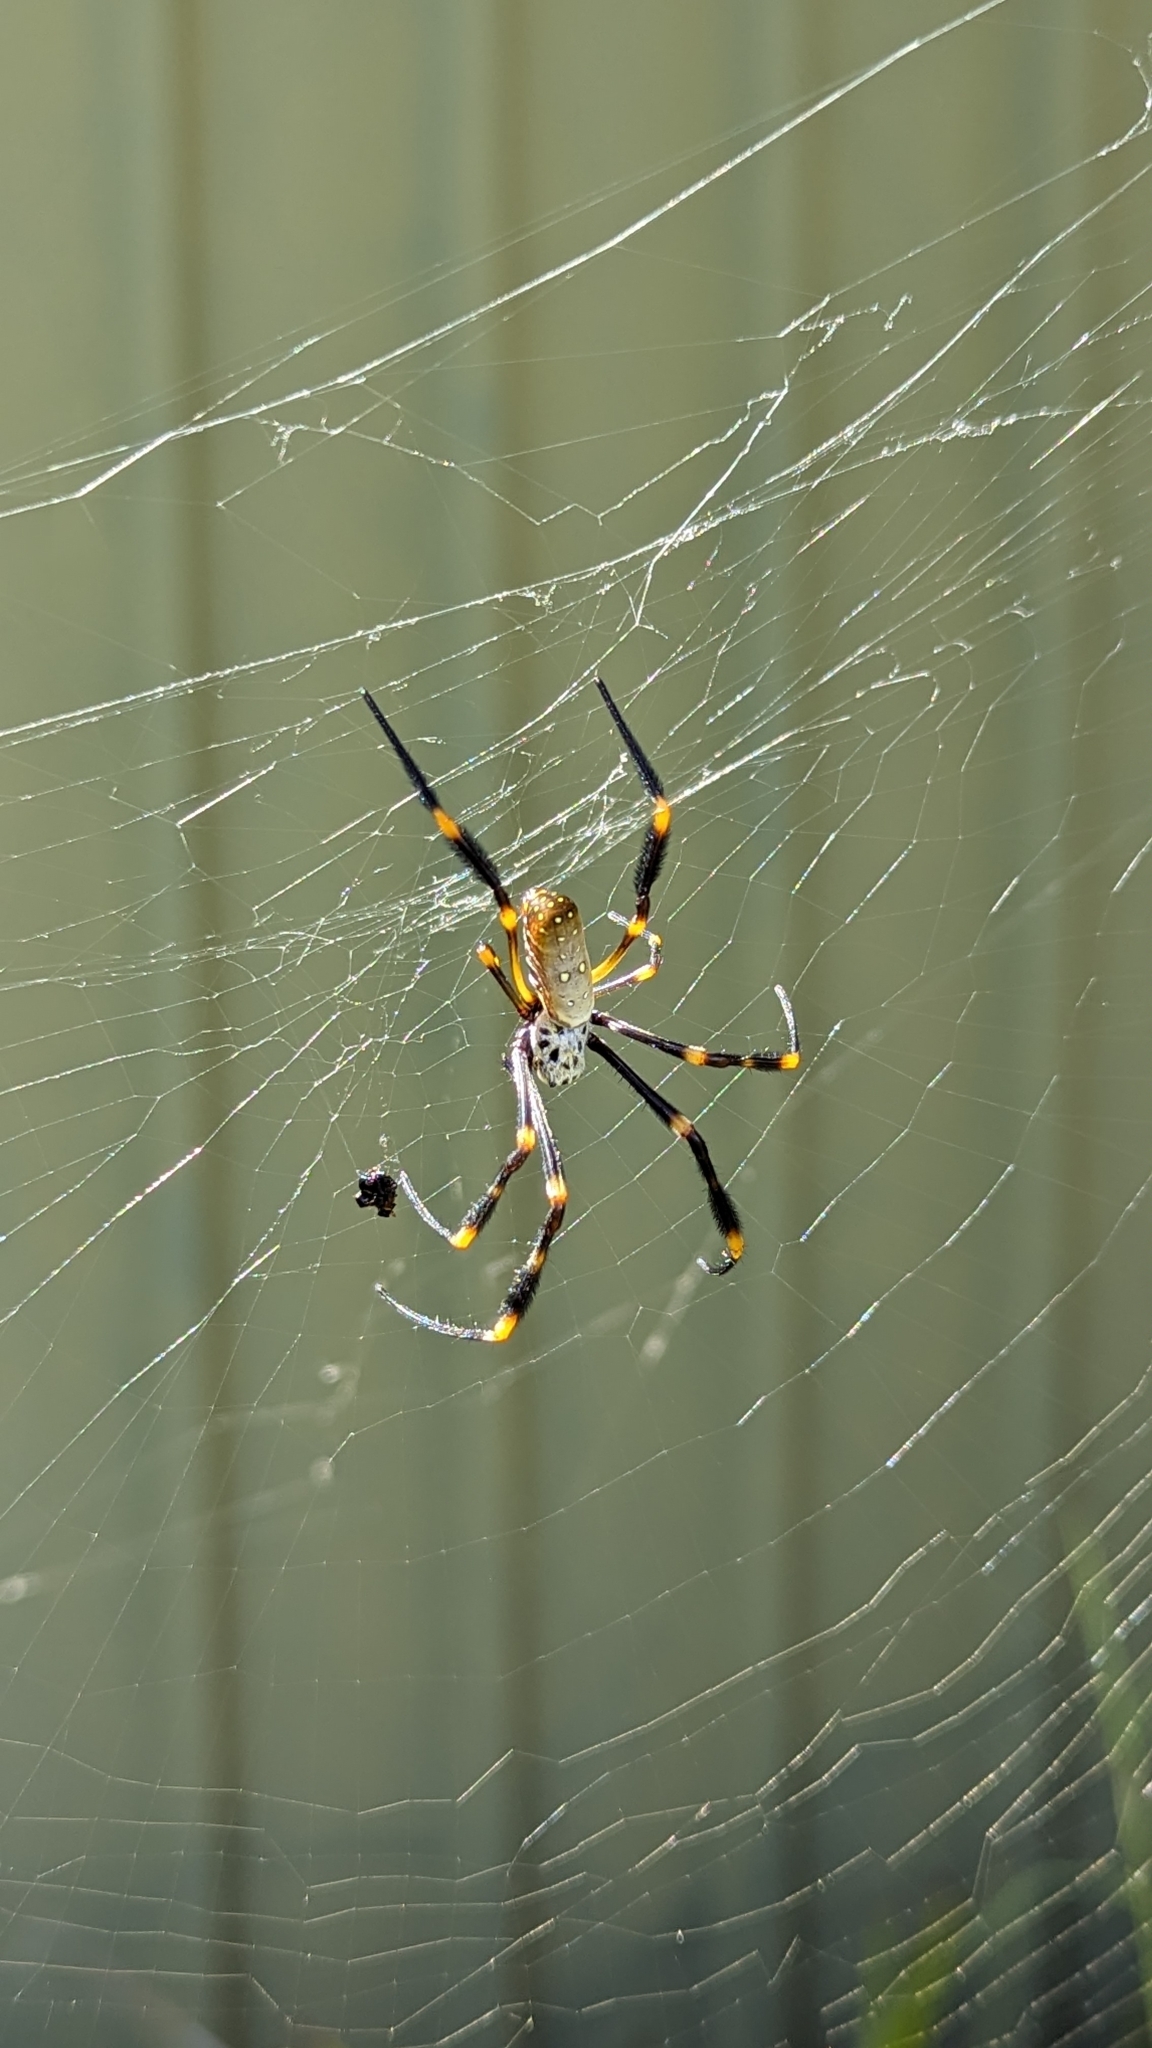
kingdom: Animalia
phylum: Arthropoda
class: Arachnida
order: Araneae
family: Araneidae
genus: Trichonephila
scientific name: Trichonephila plumipes
